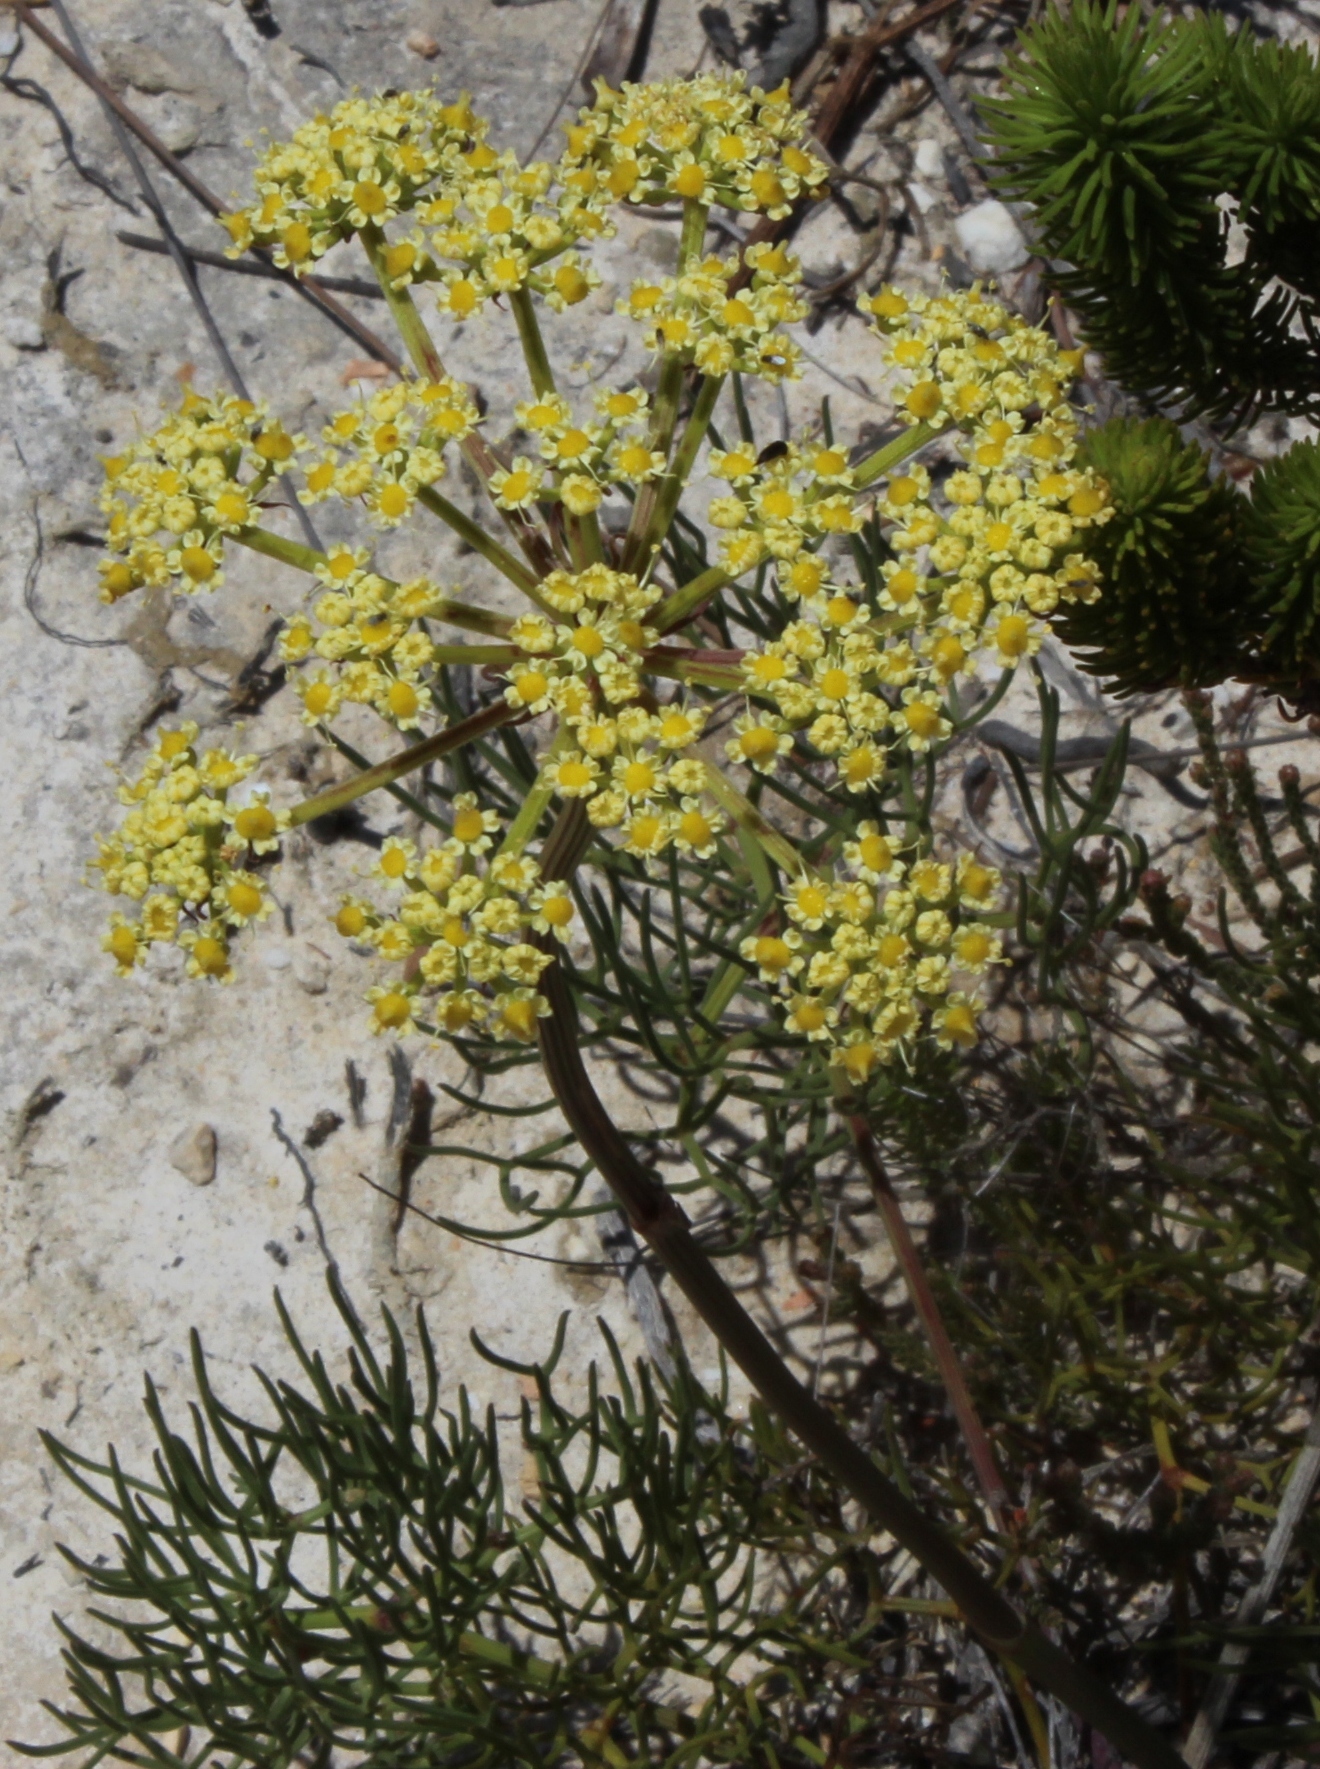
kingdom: Plantae
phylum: Tracheophyta
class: Magnoliopsida
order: Apiales
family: Apiaceae
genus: Nanobubon
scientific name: Nanobubon capillaceum
